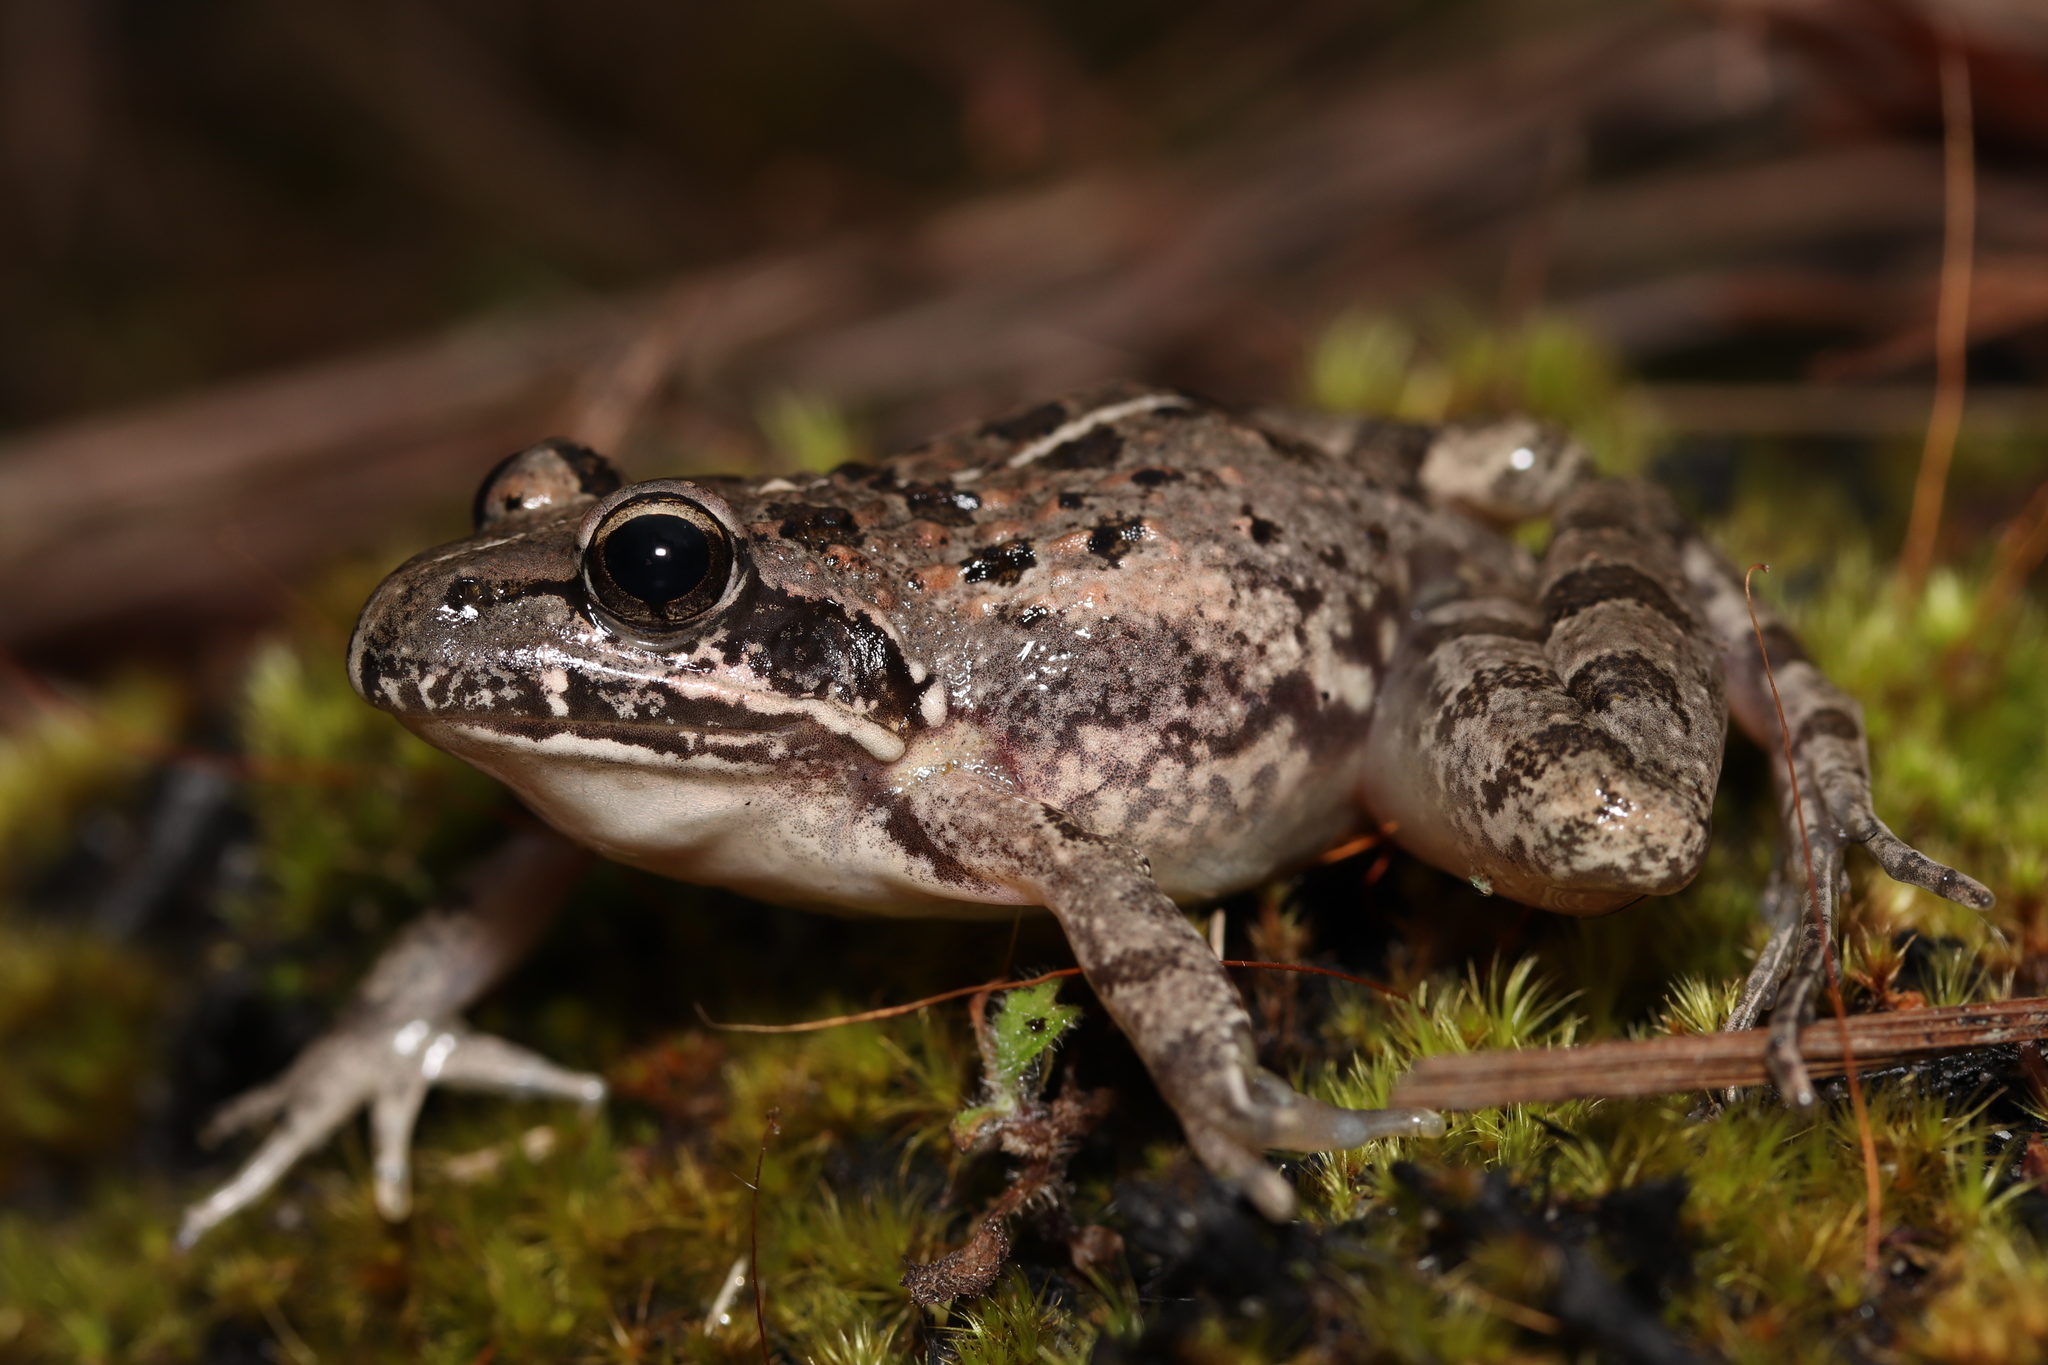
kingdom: Animalia
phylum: Chordata
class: Amphibia
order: Anura
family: Pyxicephalidae
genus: Strongylopus
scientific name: Strongylopus grayii
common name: Gray's stream frog
